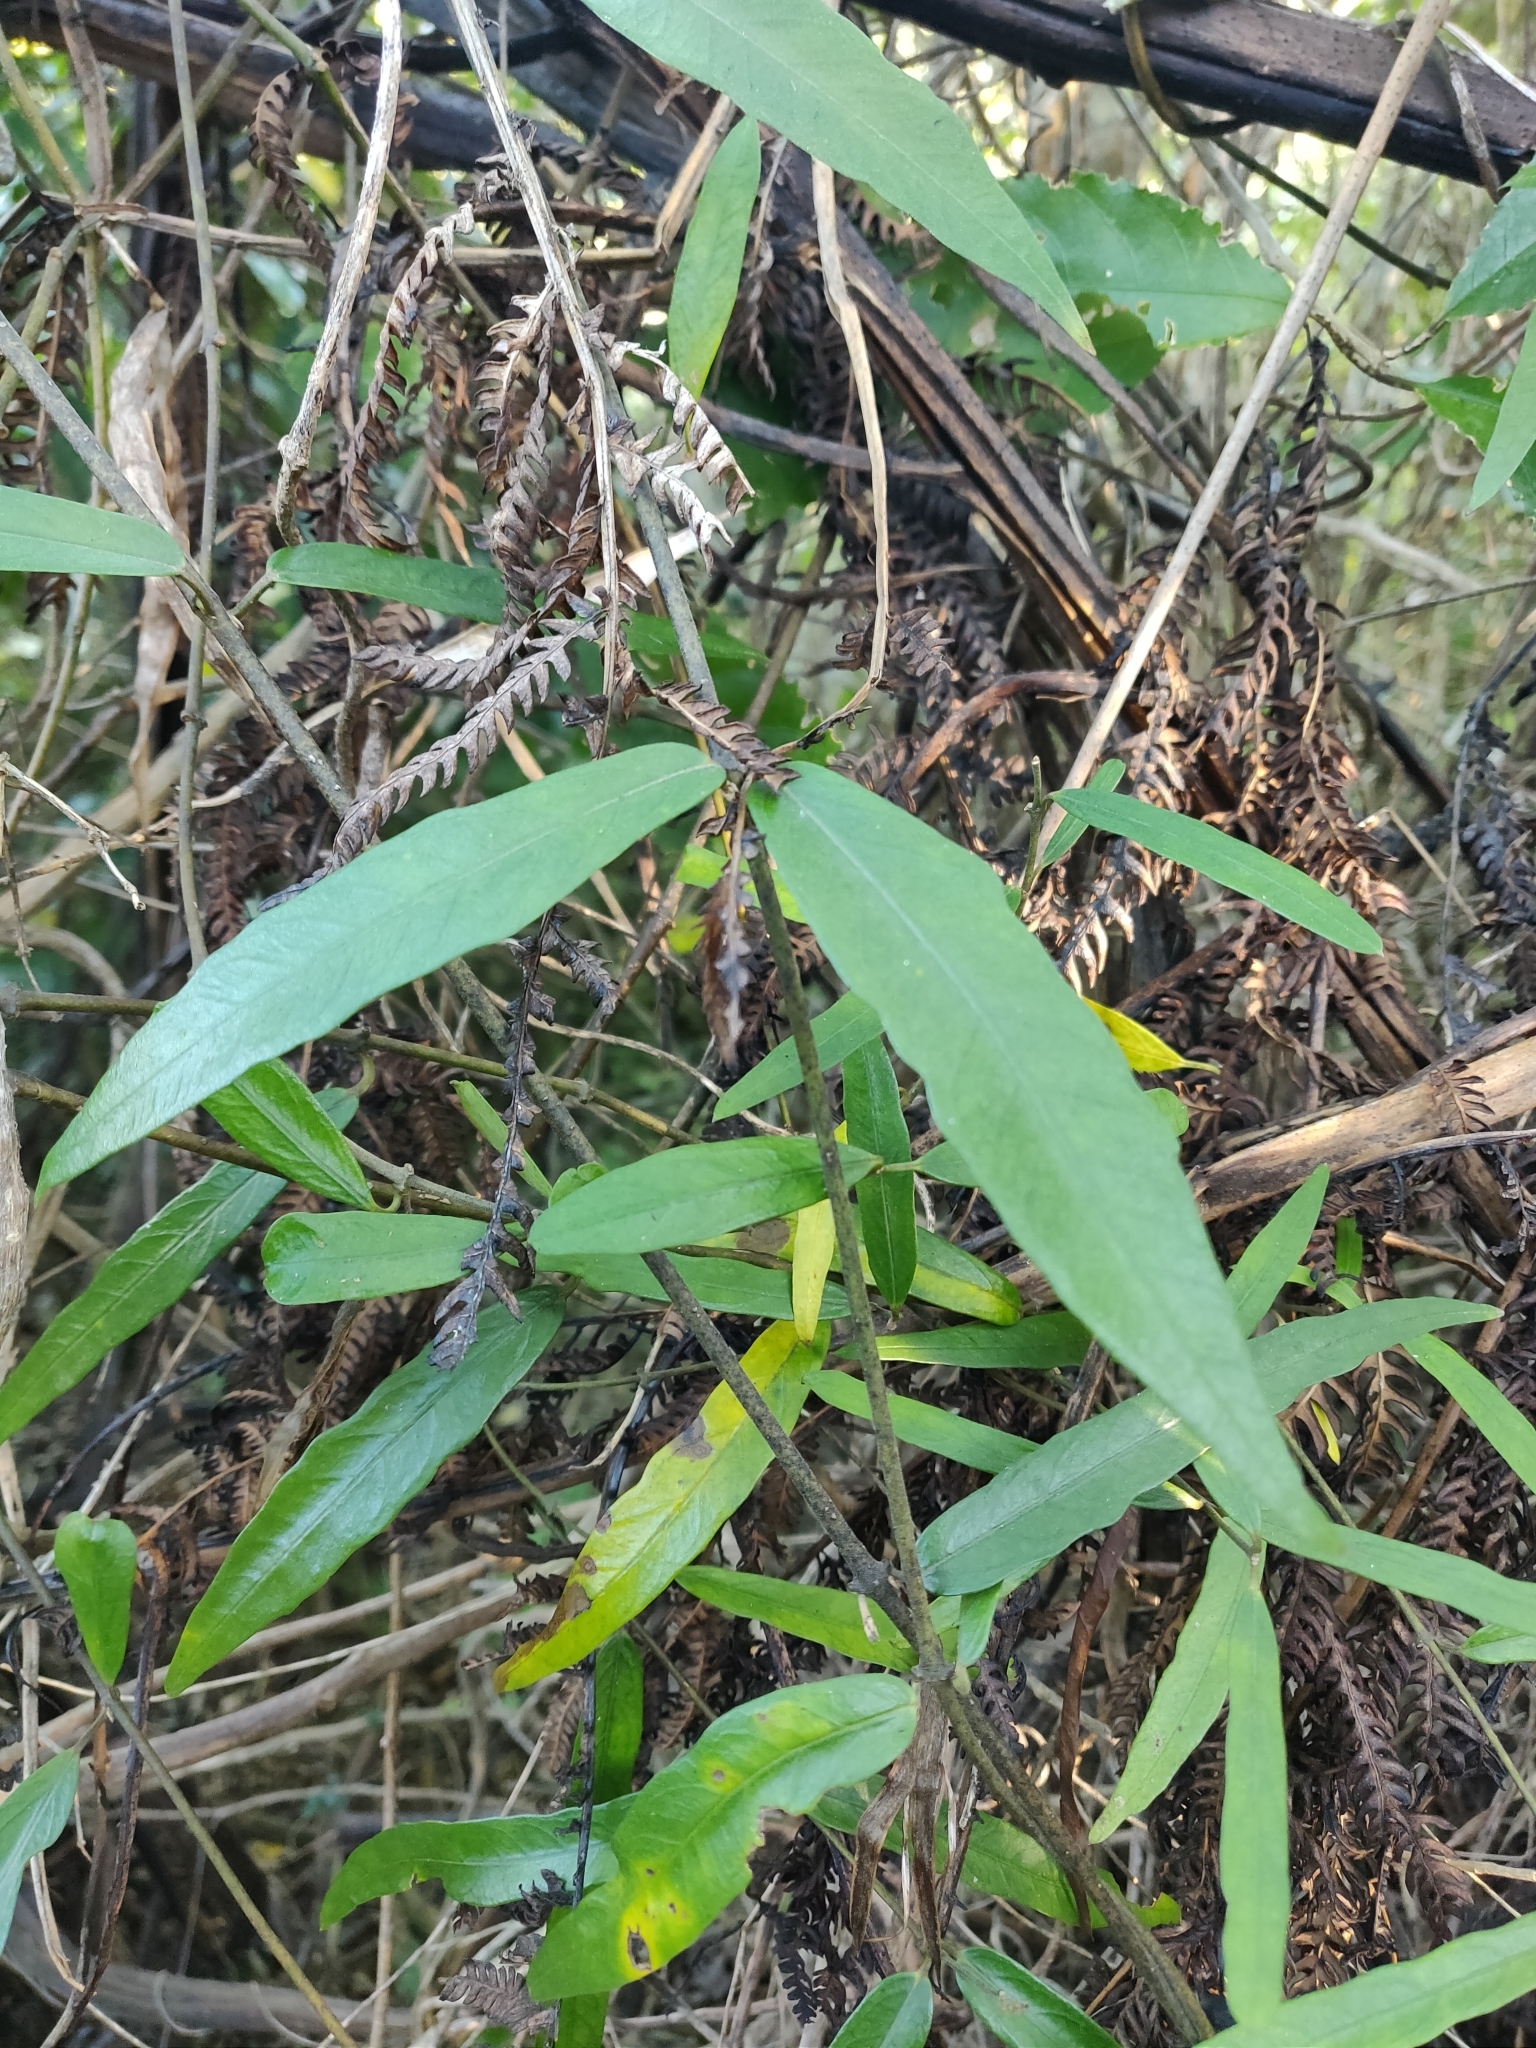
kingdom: Plantae
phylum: Tracheophyta
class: Magnoliopsida
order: Gentianales
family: Apocynaceae
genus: Parsonsia
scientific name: Parsonsia heterophylla
